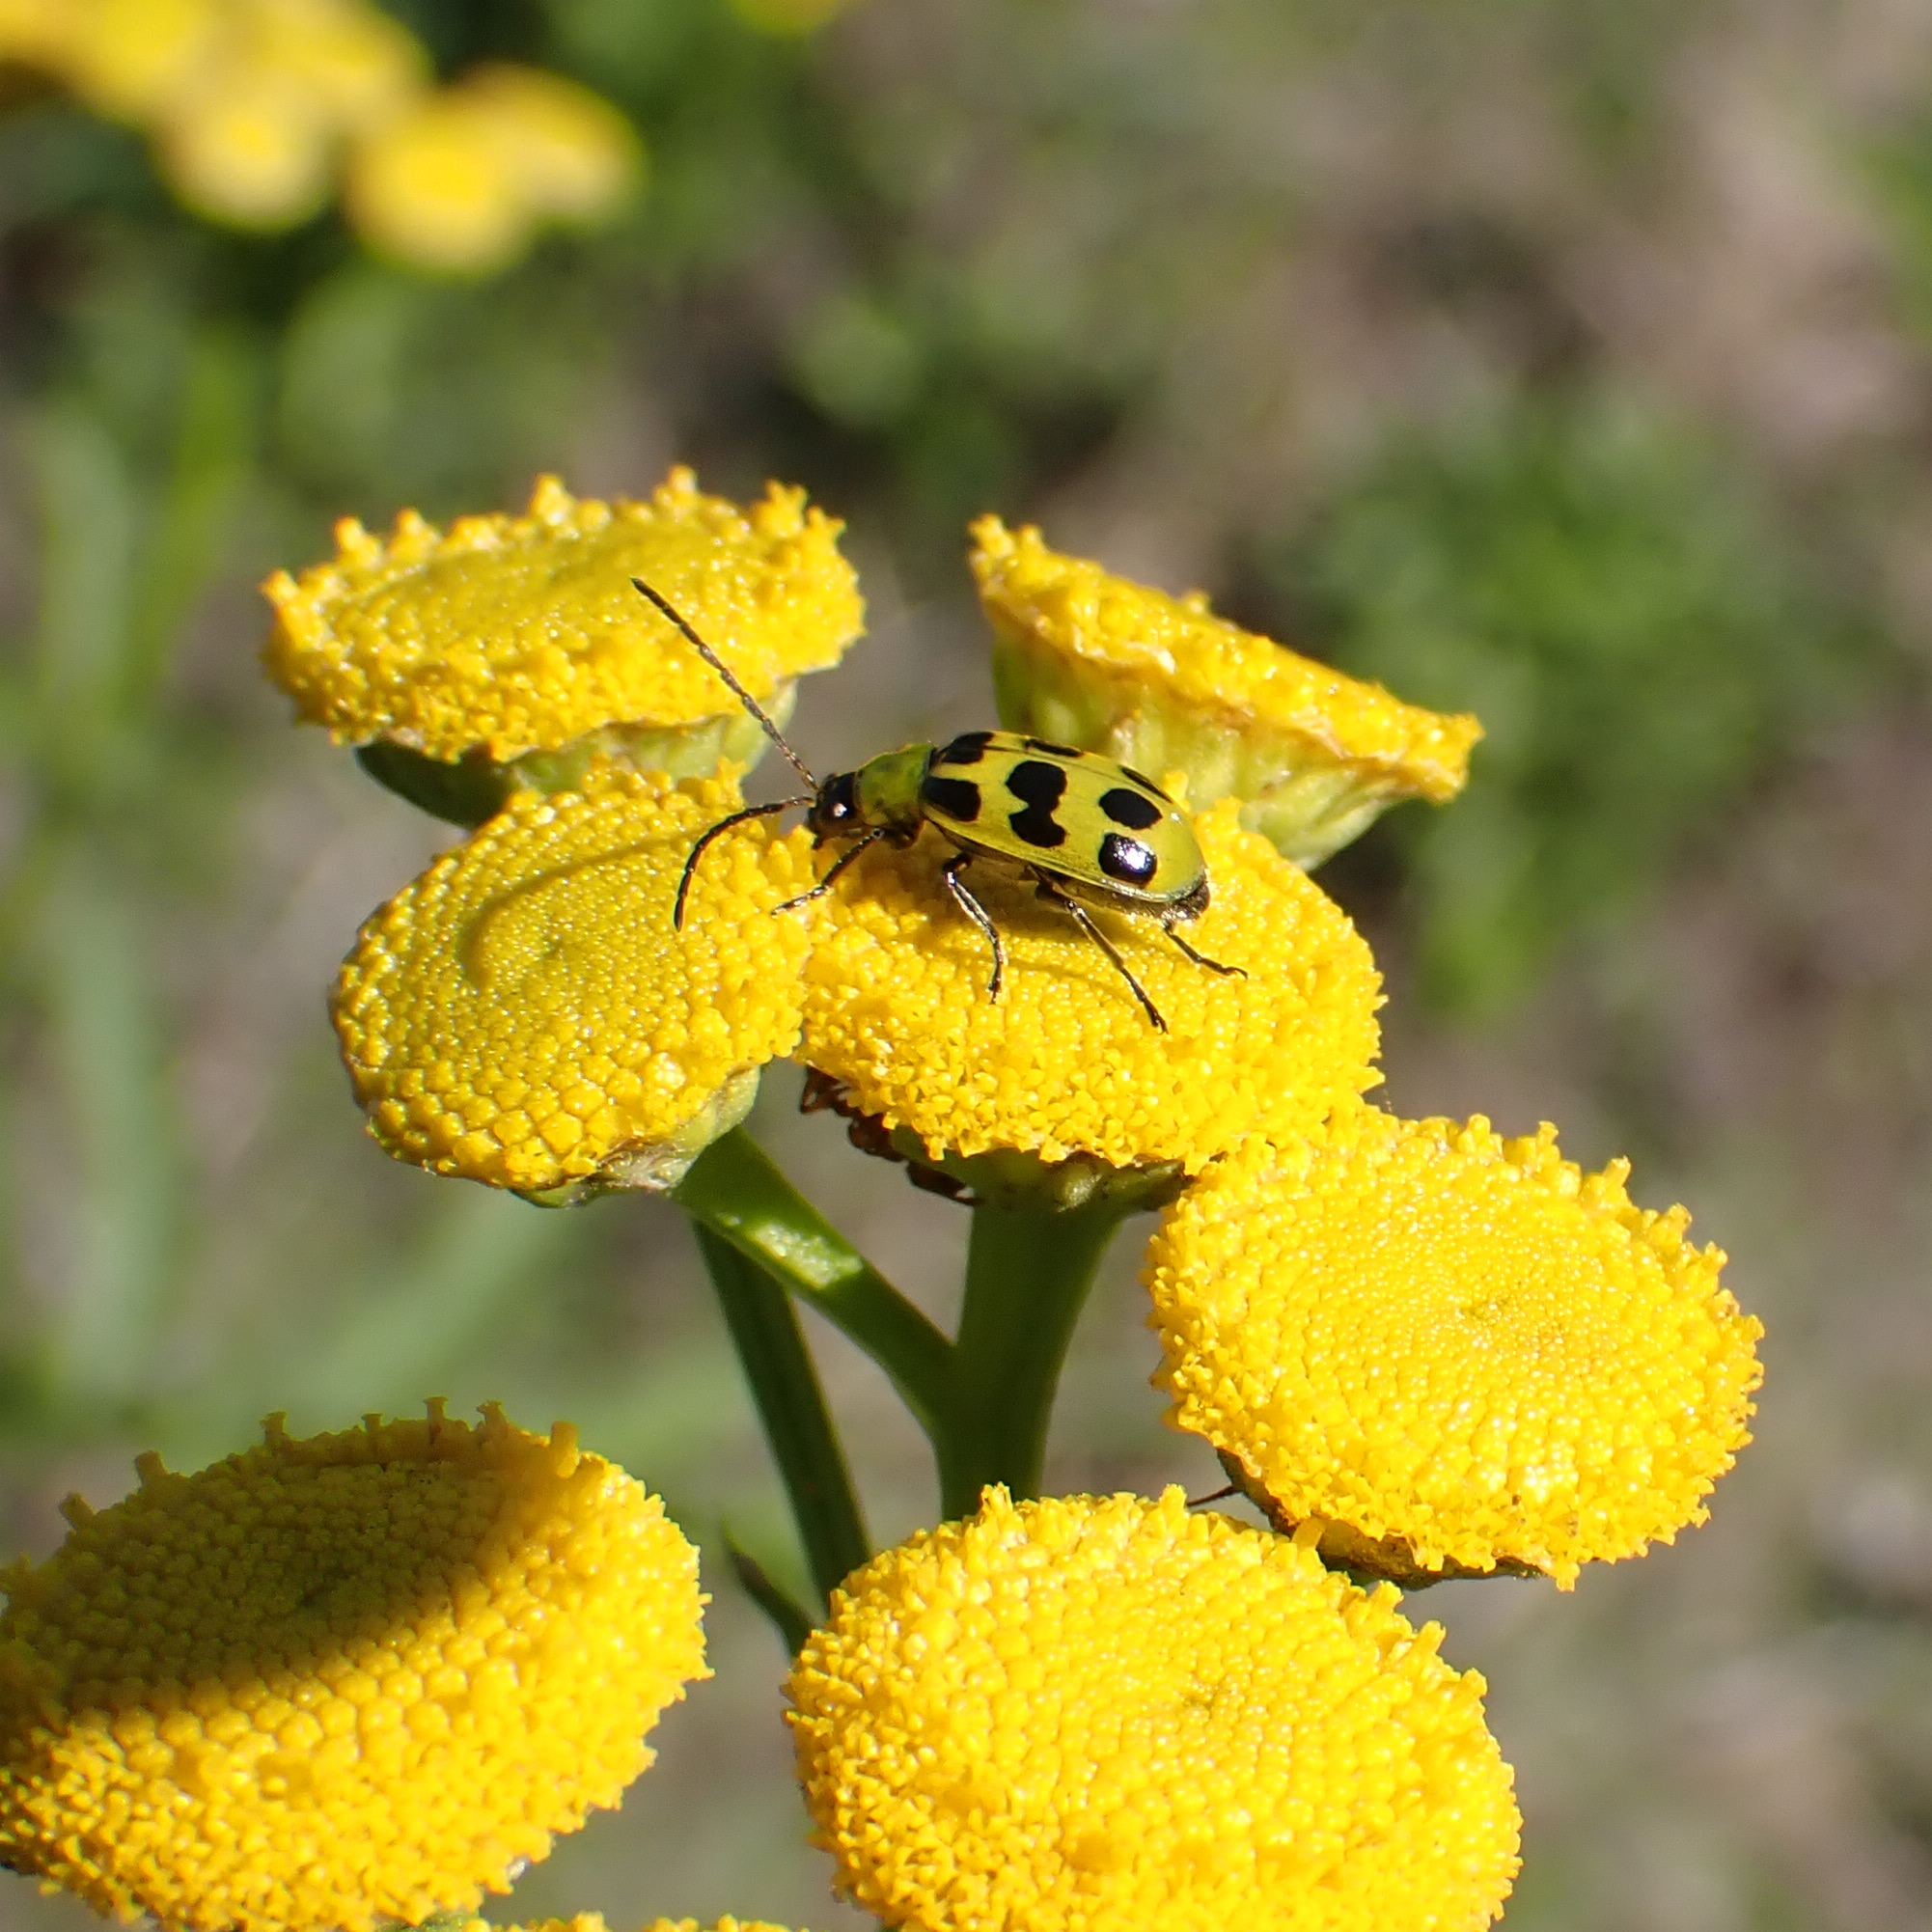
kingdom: Animalia
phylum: Arthropoda
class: Insecta
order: Coleoptera
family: Chrysomelidae
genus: Diabrotica
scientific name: Diabrotica undecimpunctata
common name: Spotted cucumber beetle
